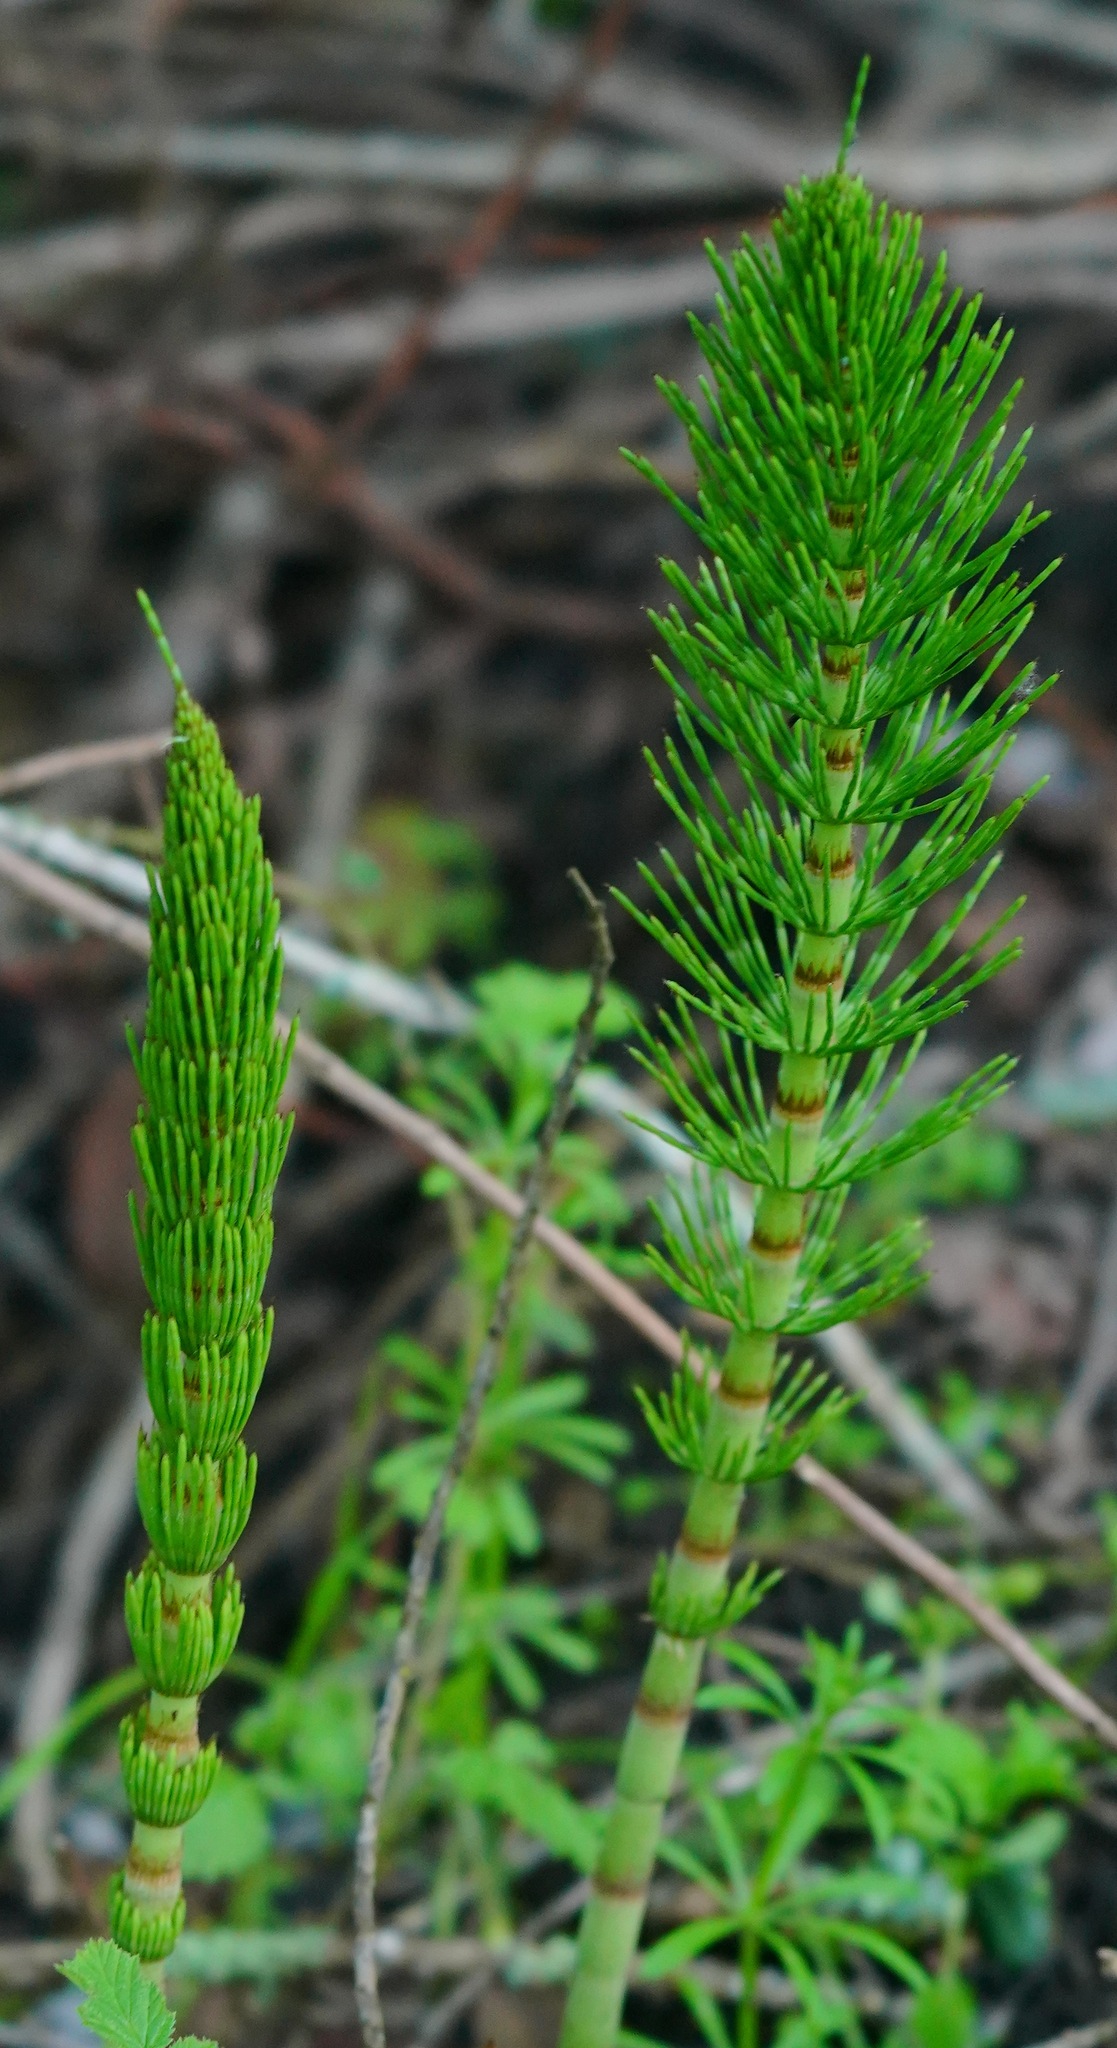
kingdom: Plantae
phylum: Tracheophyta
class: Polypodiopsida
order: Equisetales
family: Equisetaceae
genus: Equisetum
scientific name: Equisetum braunii
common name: Braun's horsetail
